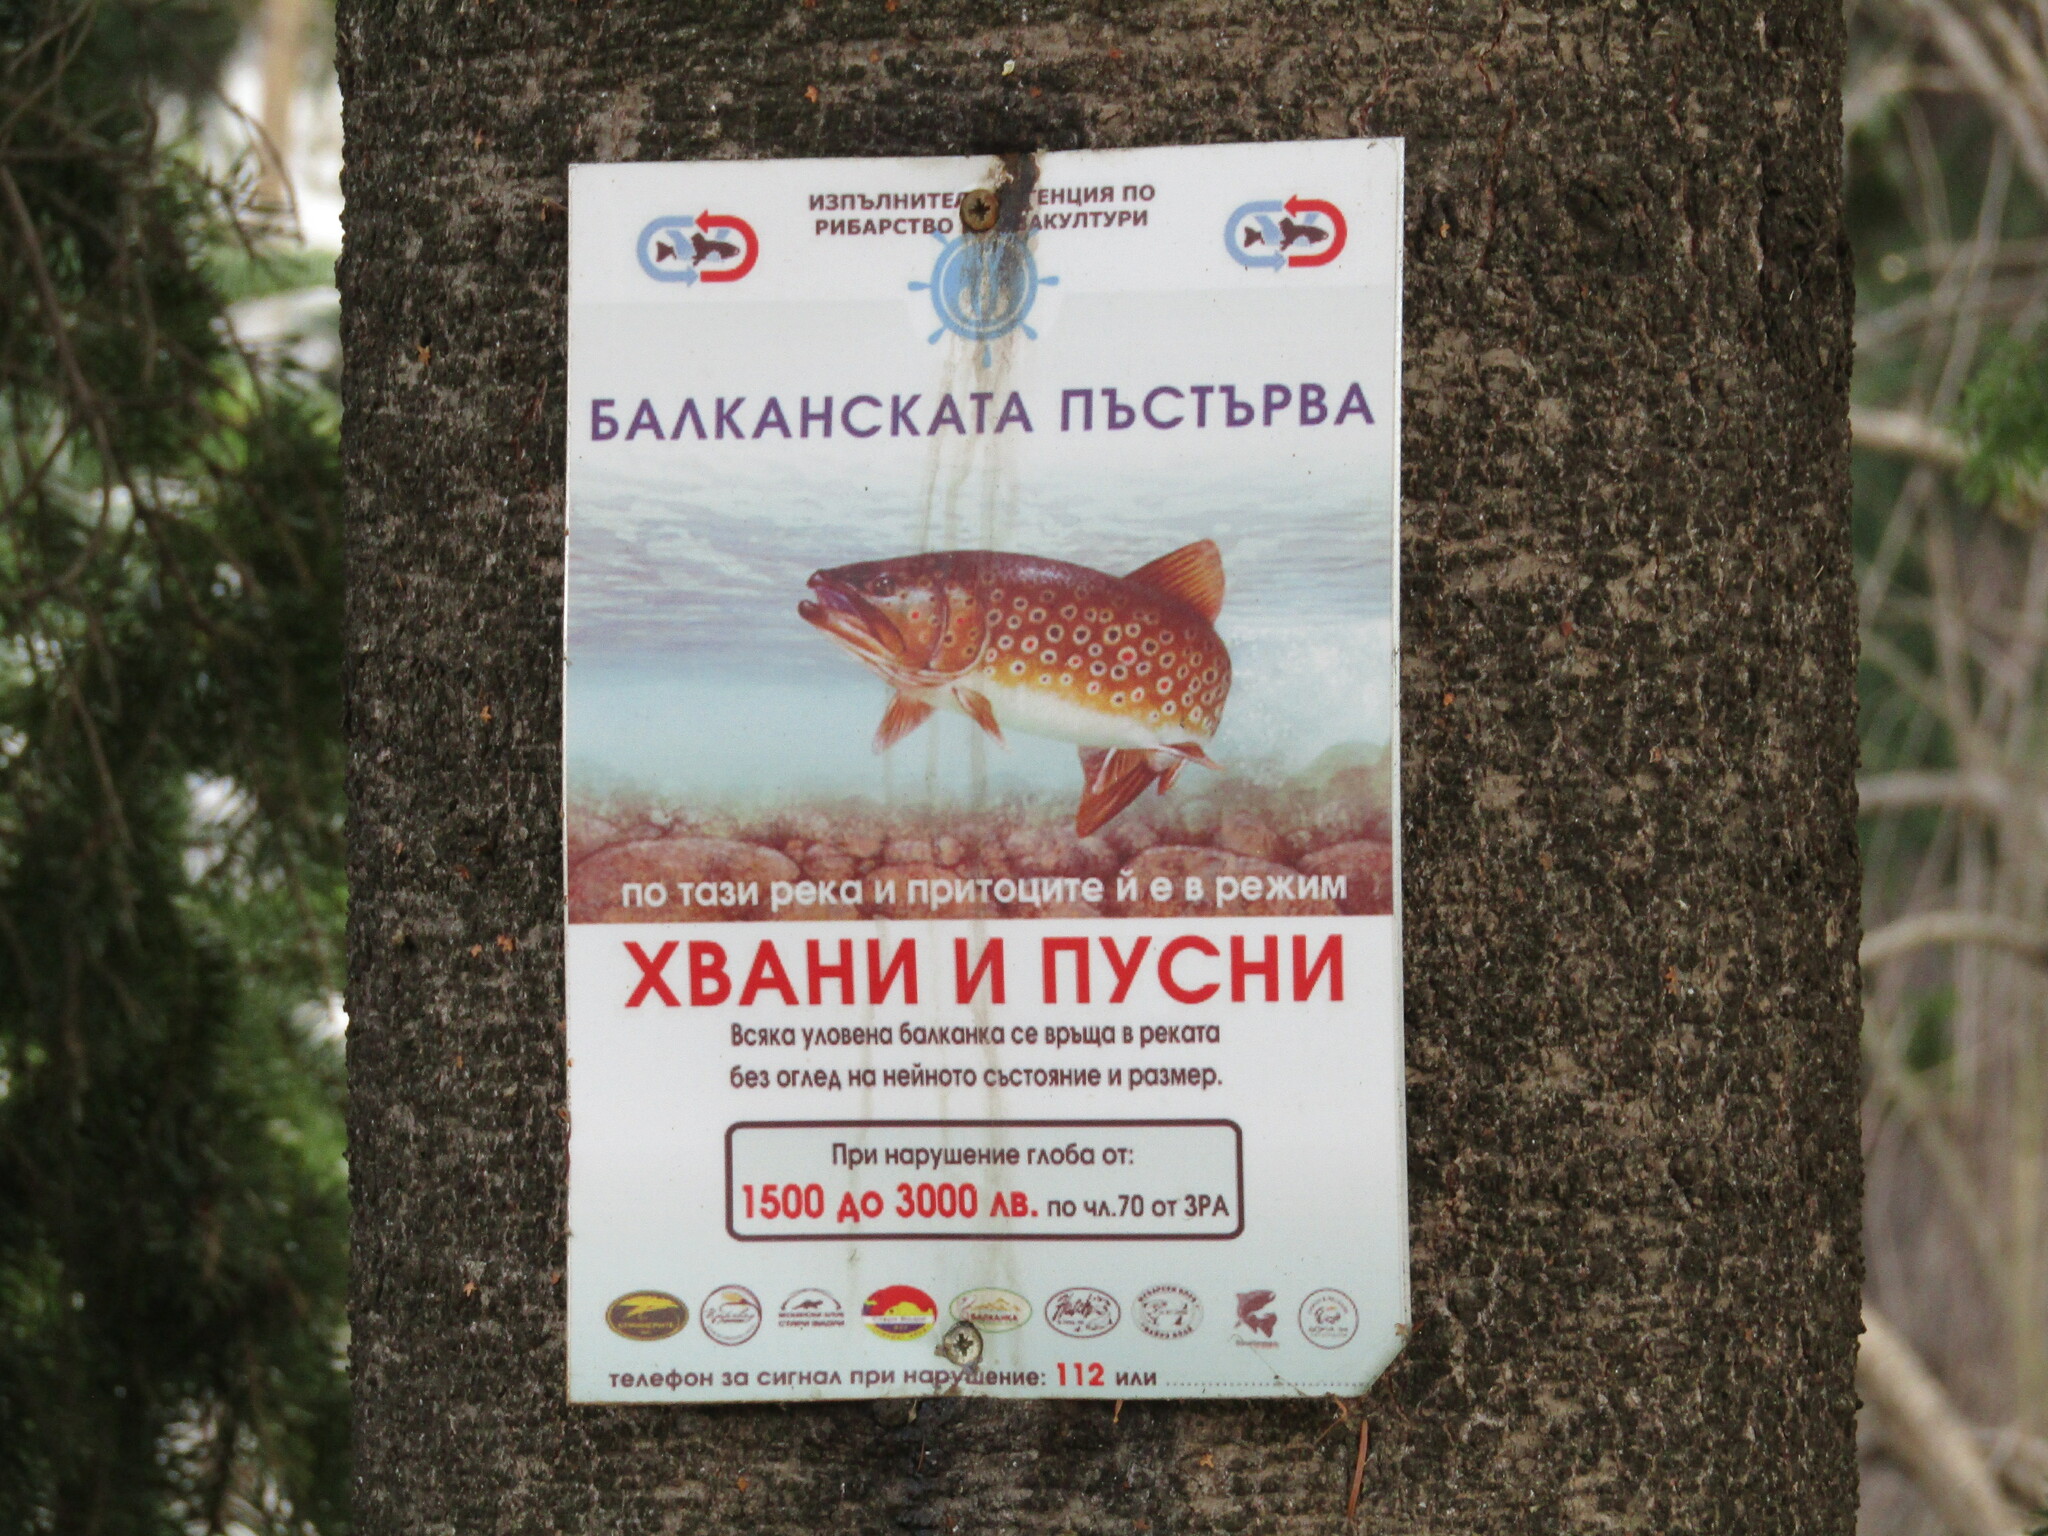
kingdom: Animalia
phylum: Chordata
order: Salmoniformes
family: Salmonidae
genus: Salmo
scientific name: Salmo labrax
